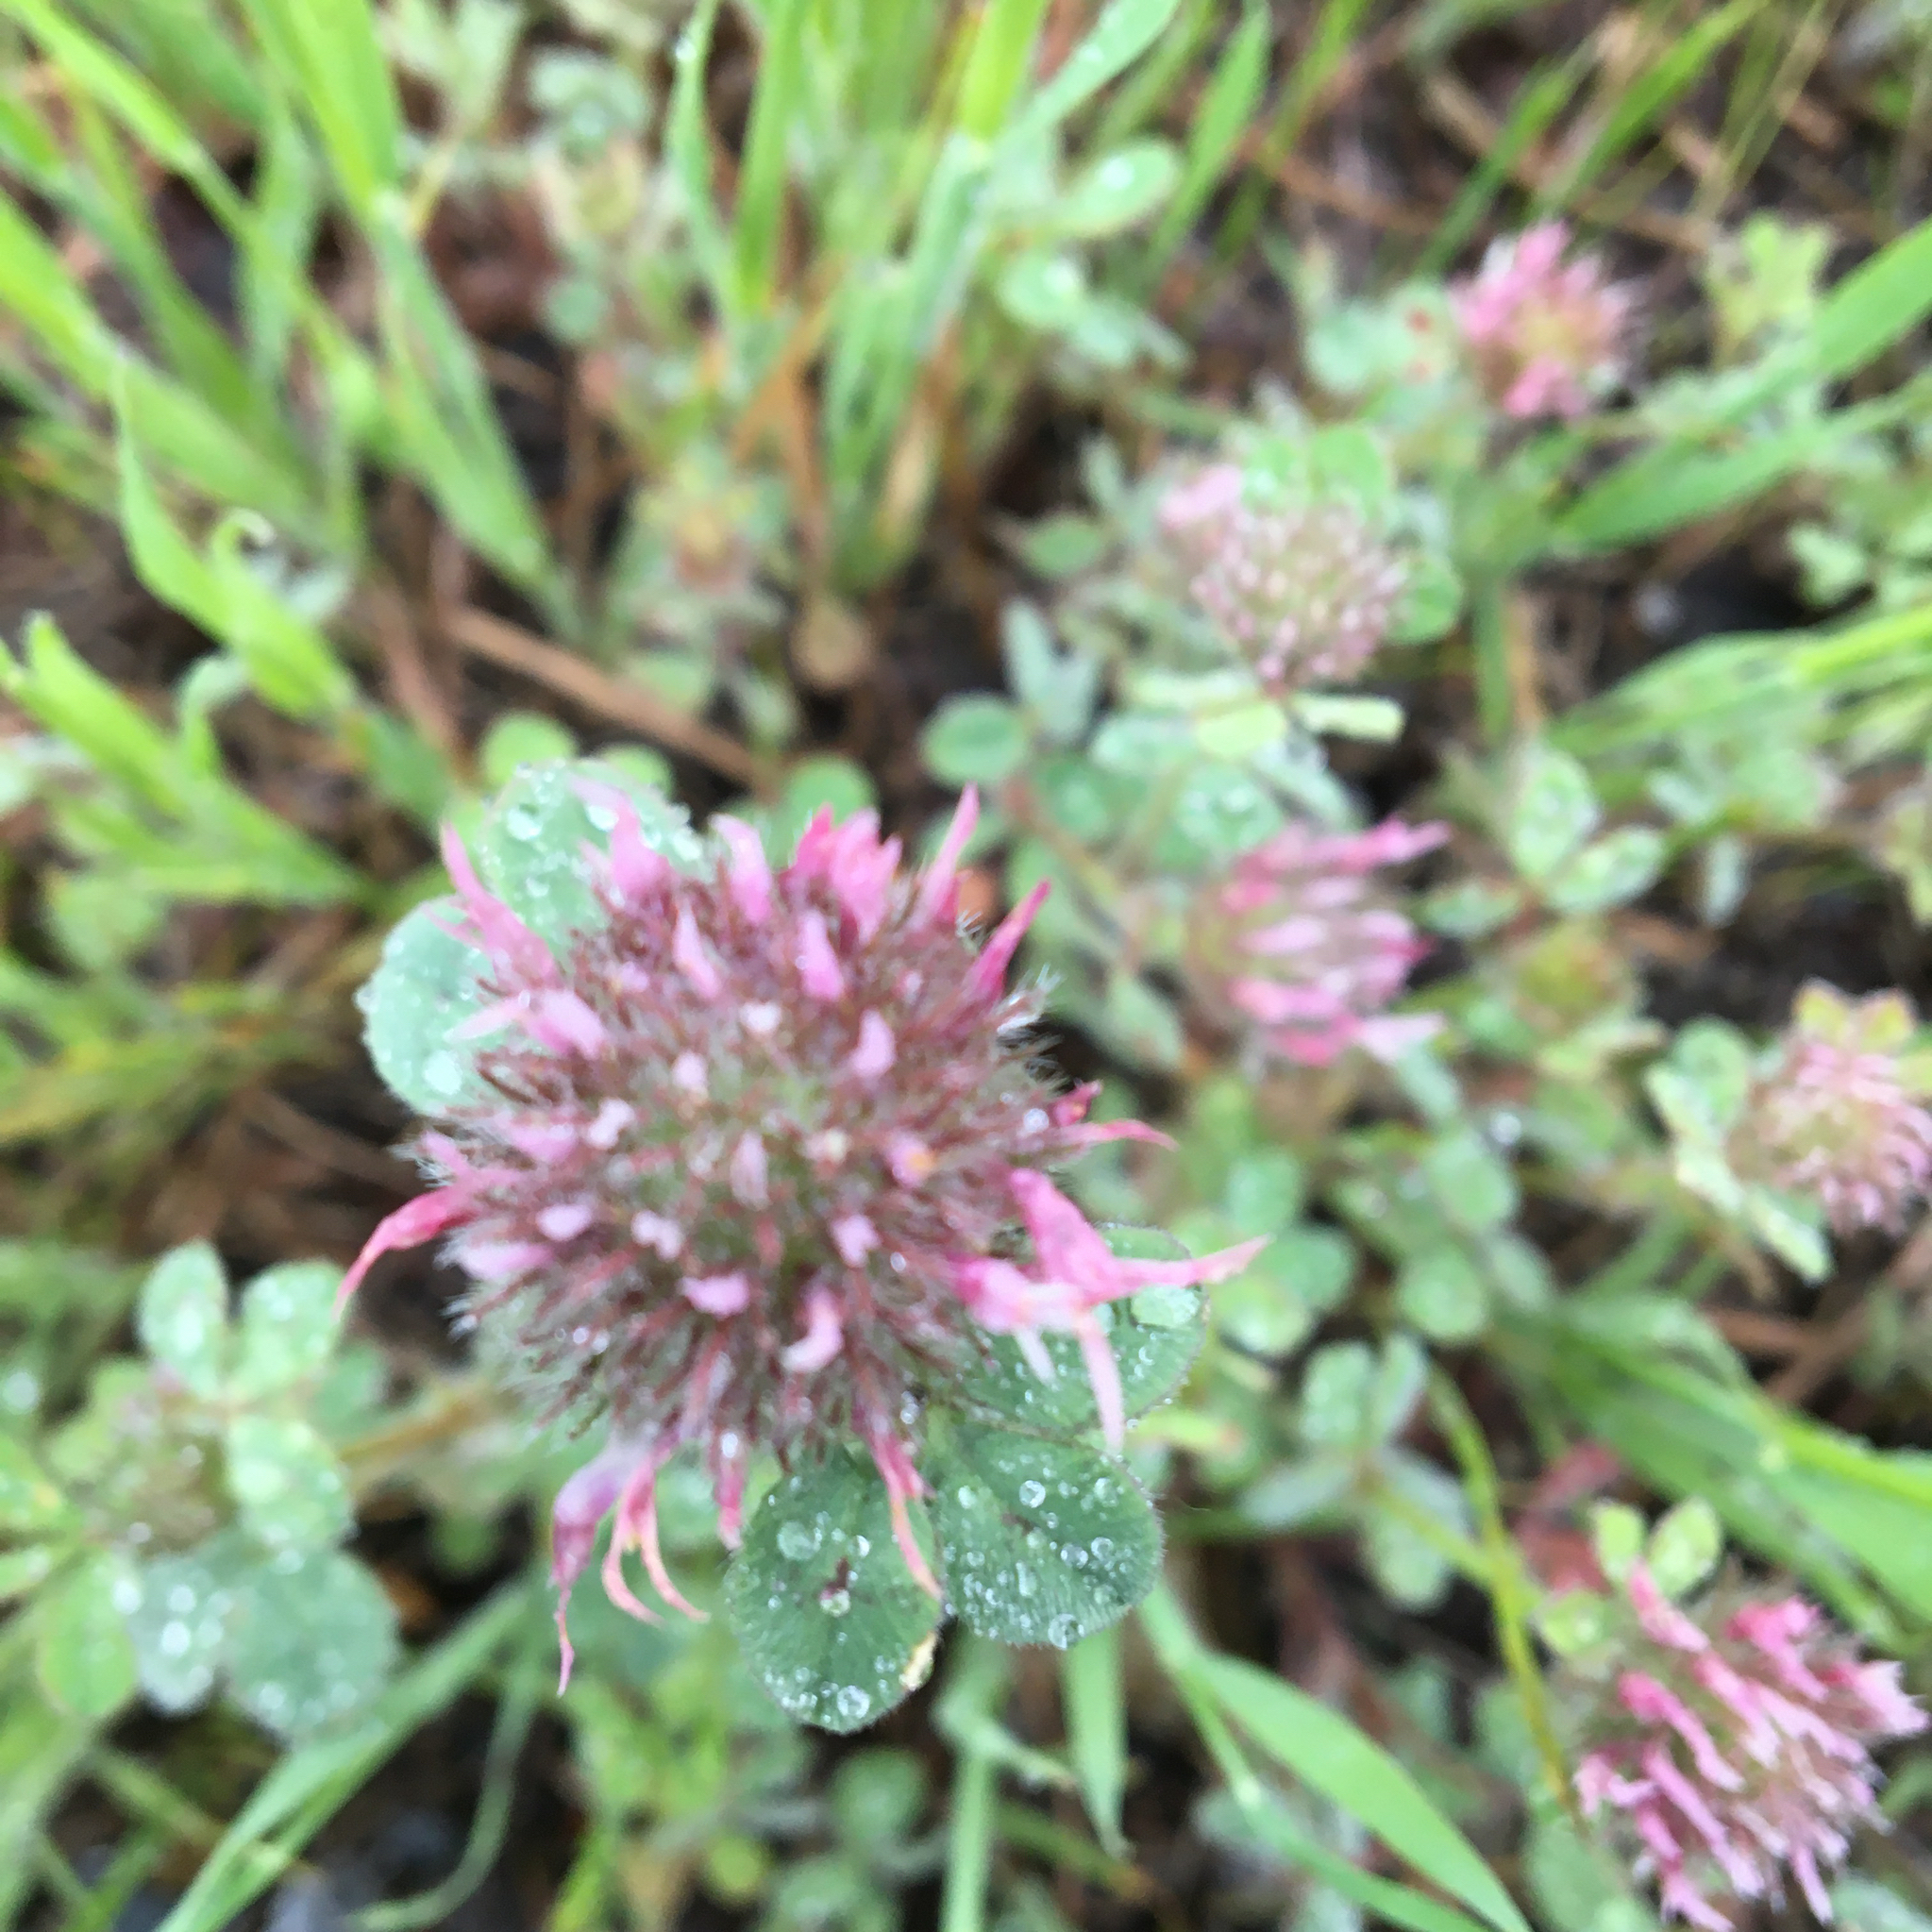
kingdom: Plantae
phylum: Tracheophyta
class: Magnoliopsida
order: Fabales
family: Fabaceae
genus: Trifolium
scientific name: Trifolium hirtum
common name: Rose clover
